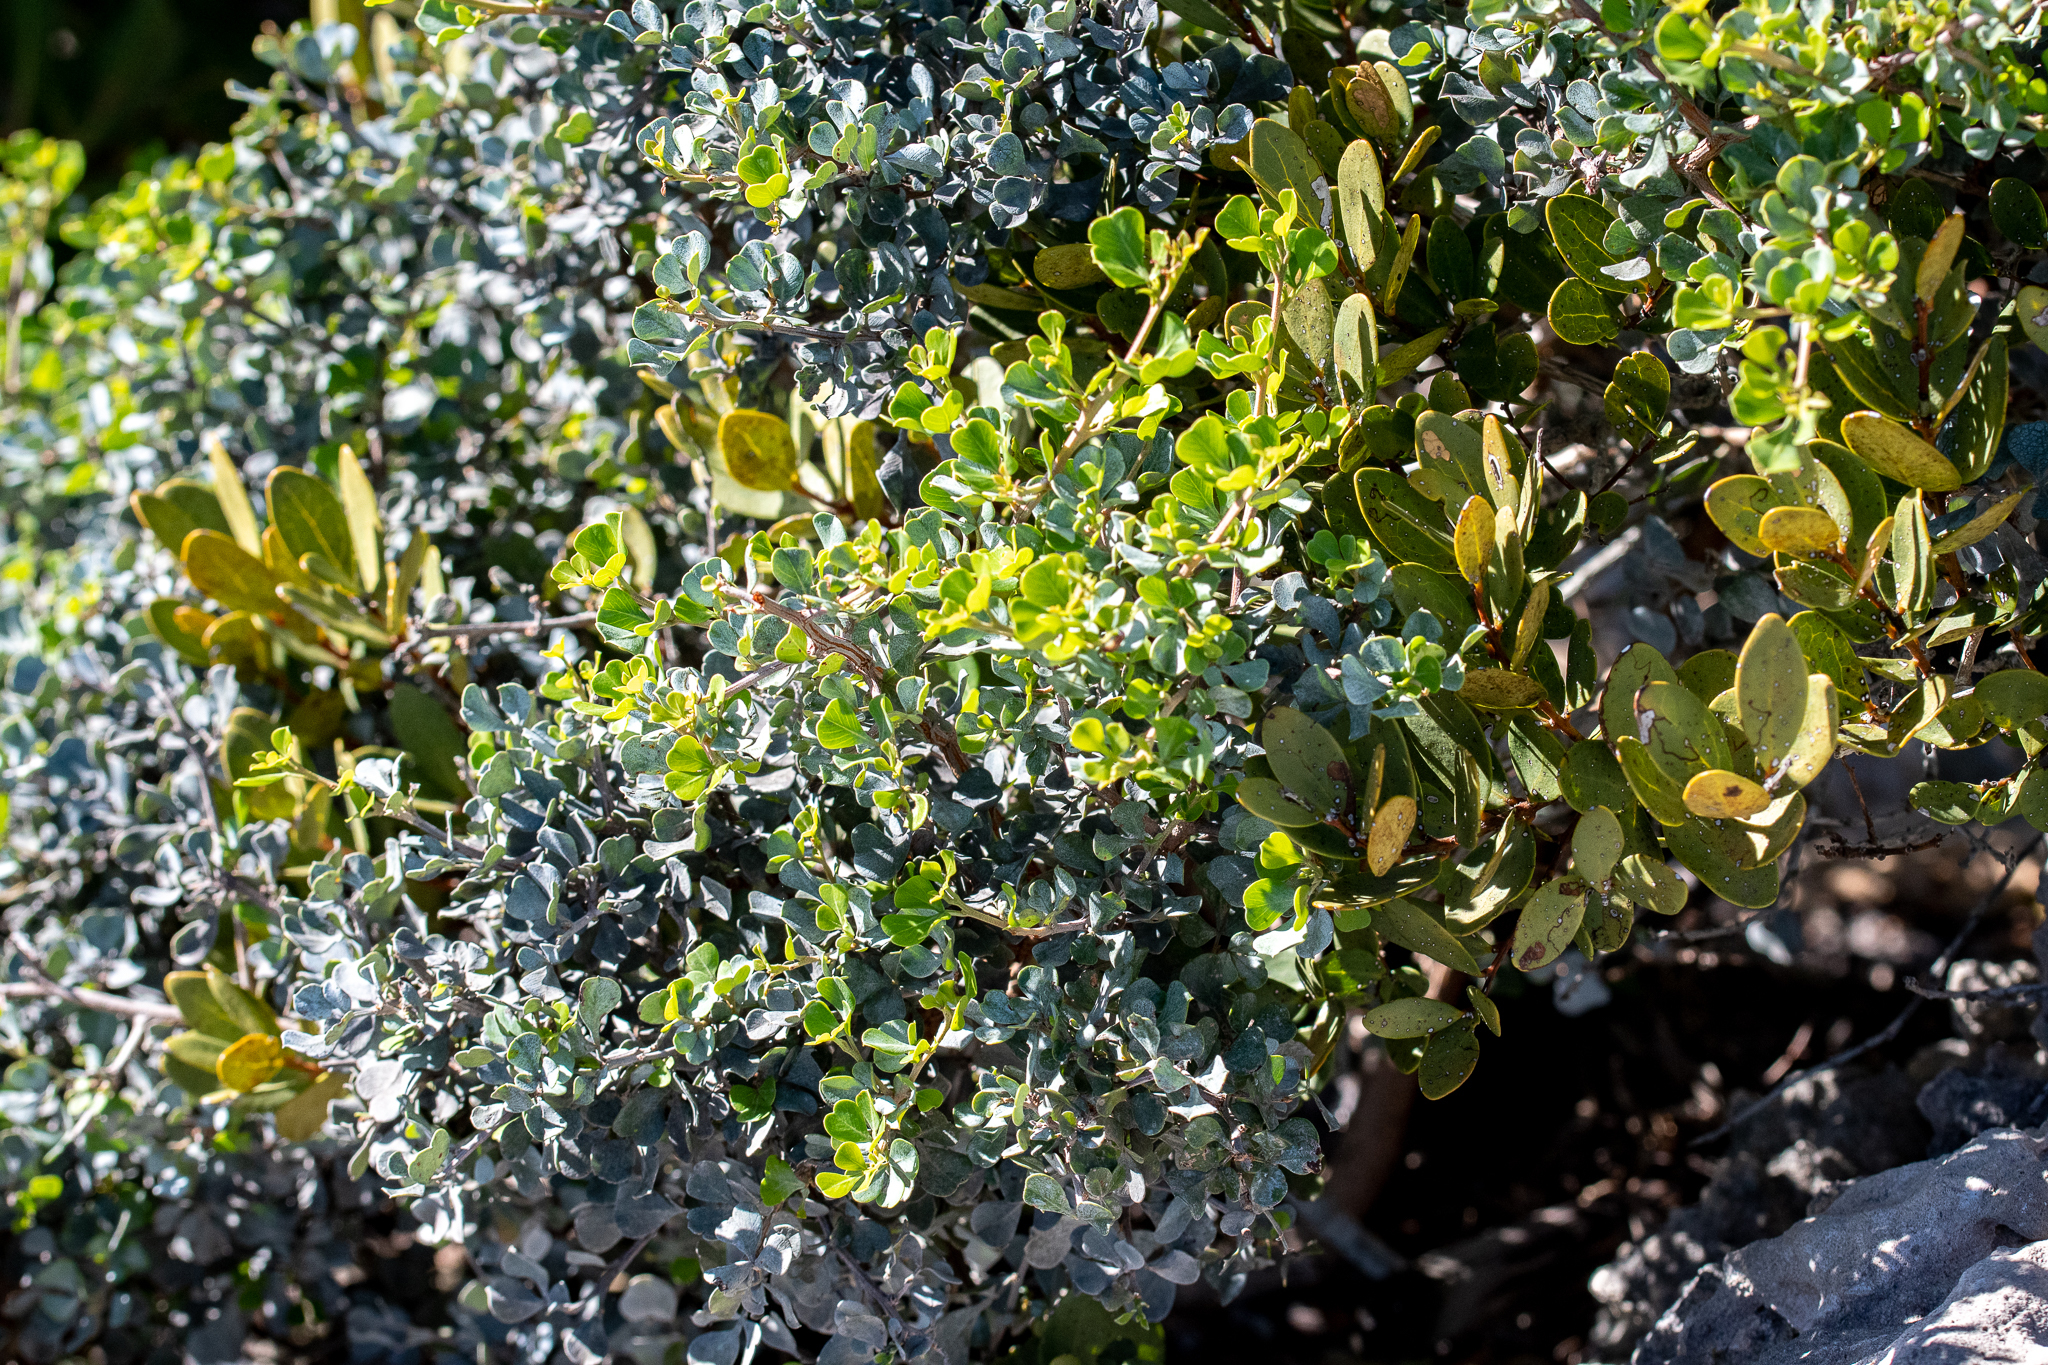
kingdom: Plantae
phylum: Tracheophyta
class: Magnoliopsida
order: Sapindales
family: Anacardiaceae
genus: Searsia
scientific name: Searsia glauca
